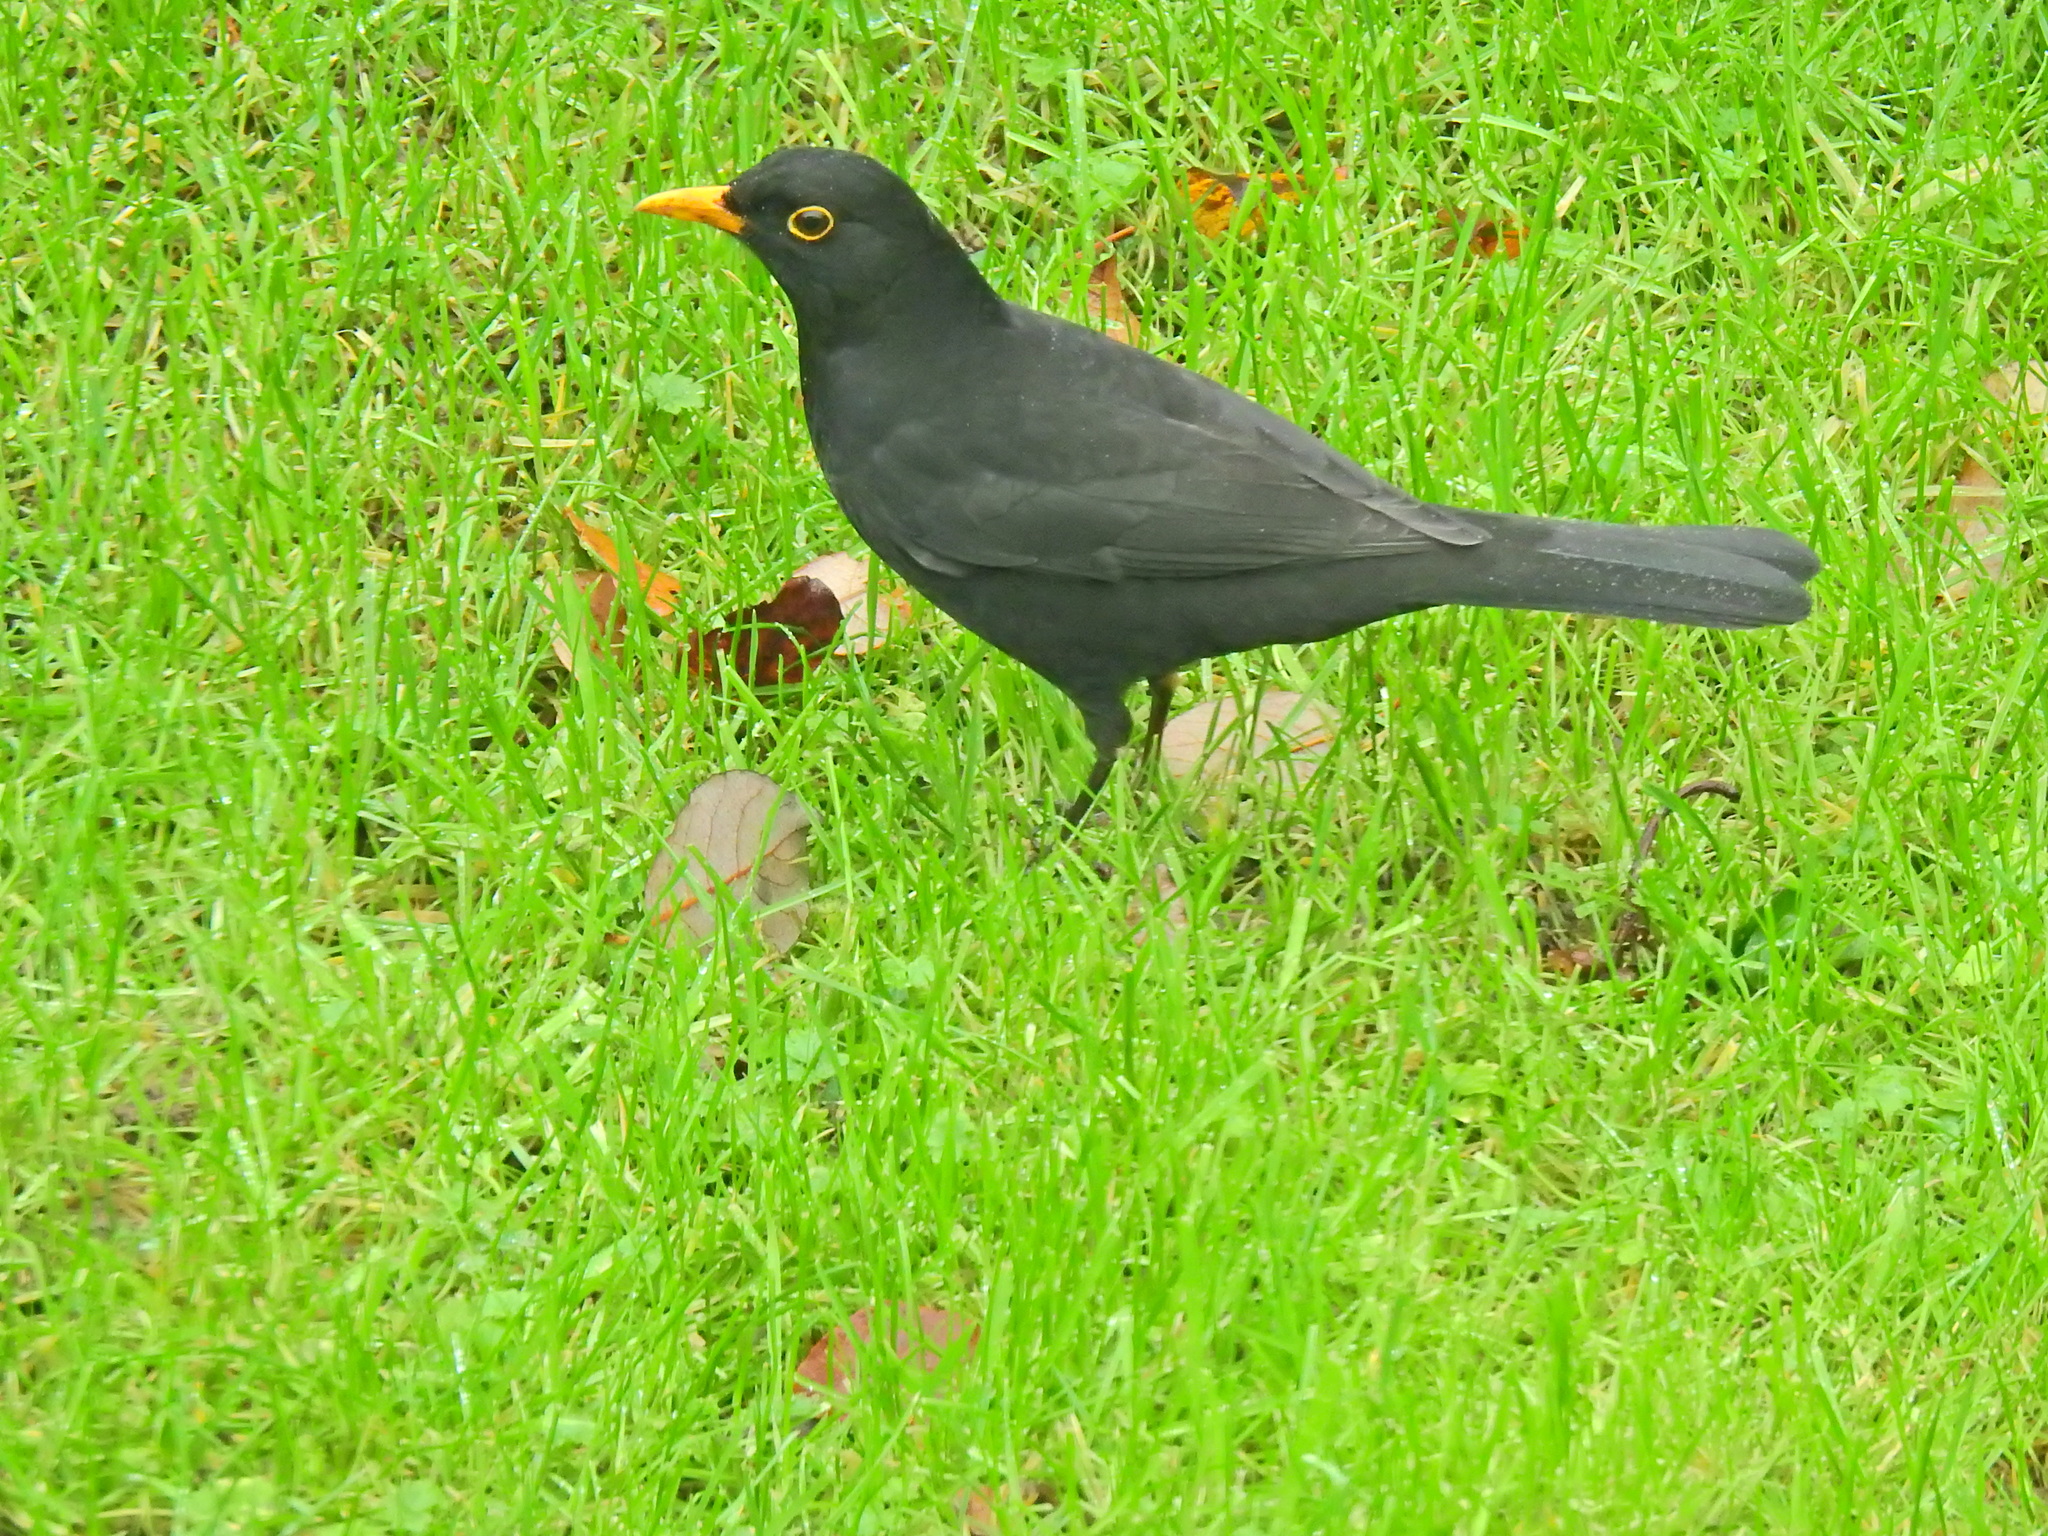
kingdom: Animalia
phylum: Chordata
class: Aves
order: Passeriformes
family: Turdidae
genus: Turdus
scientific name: Turdus merula
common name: Common blackbird
